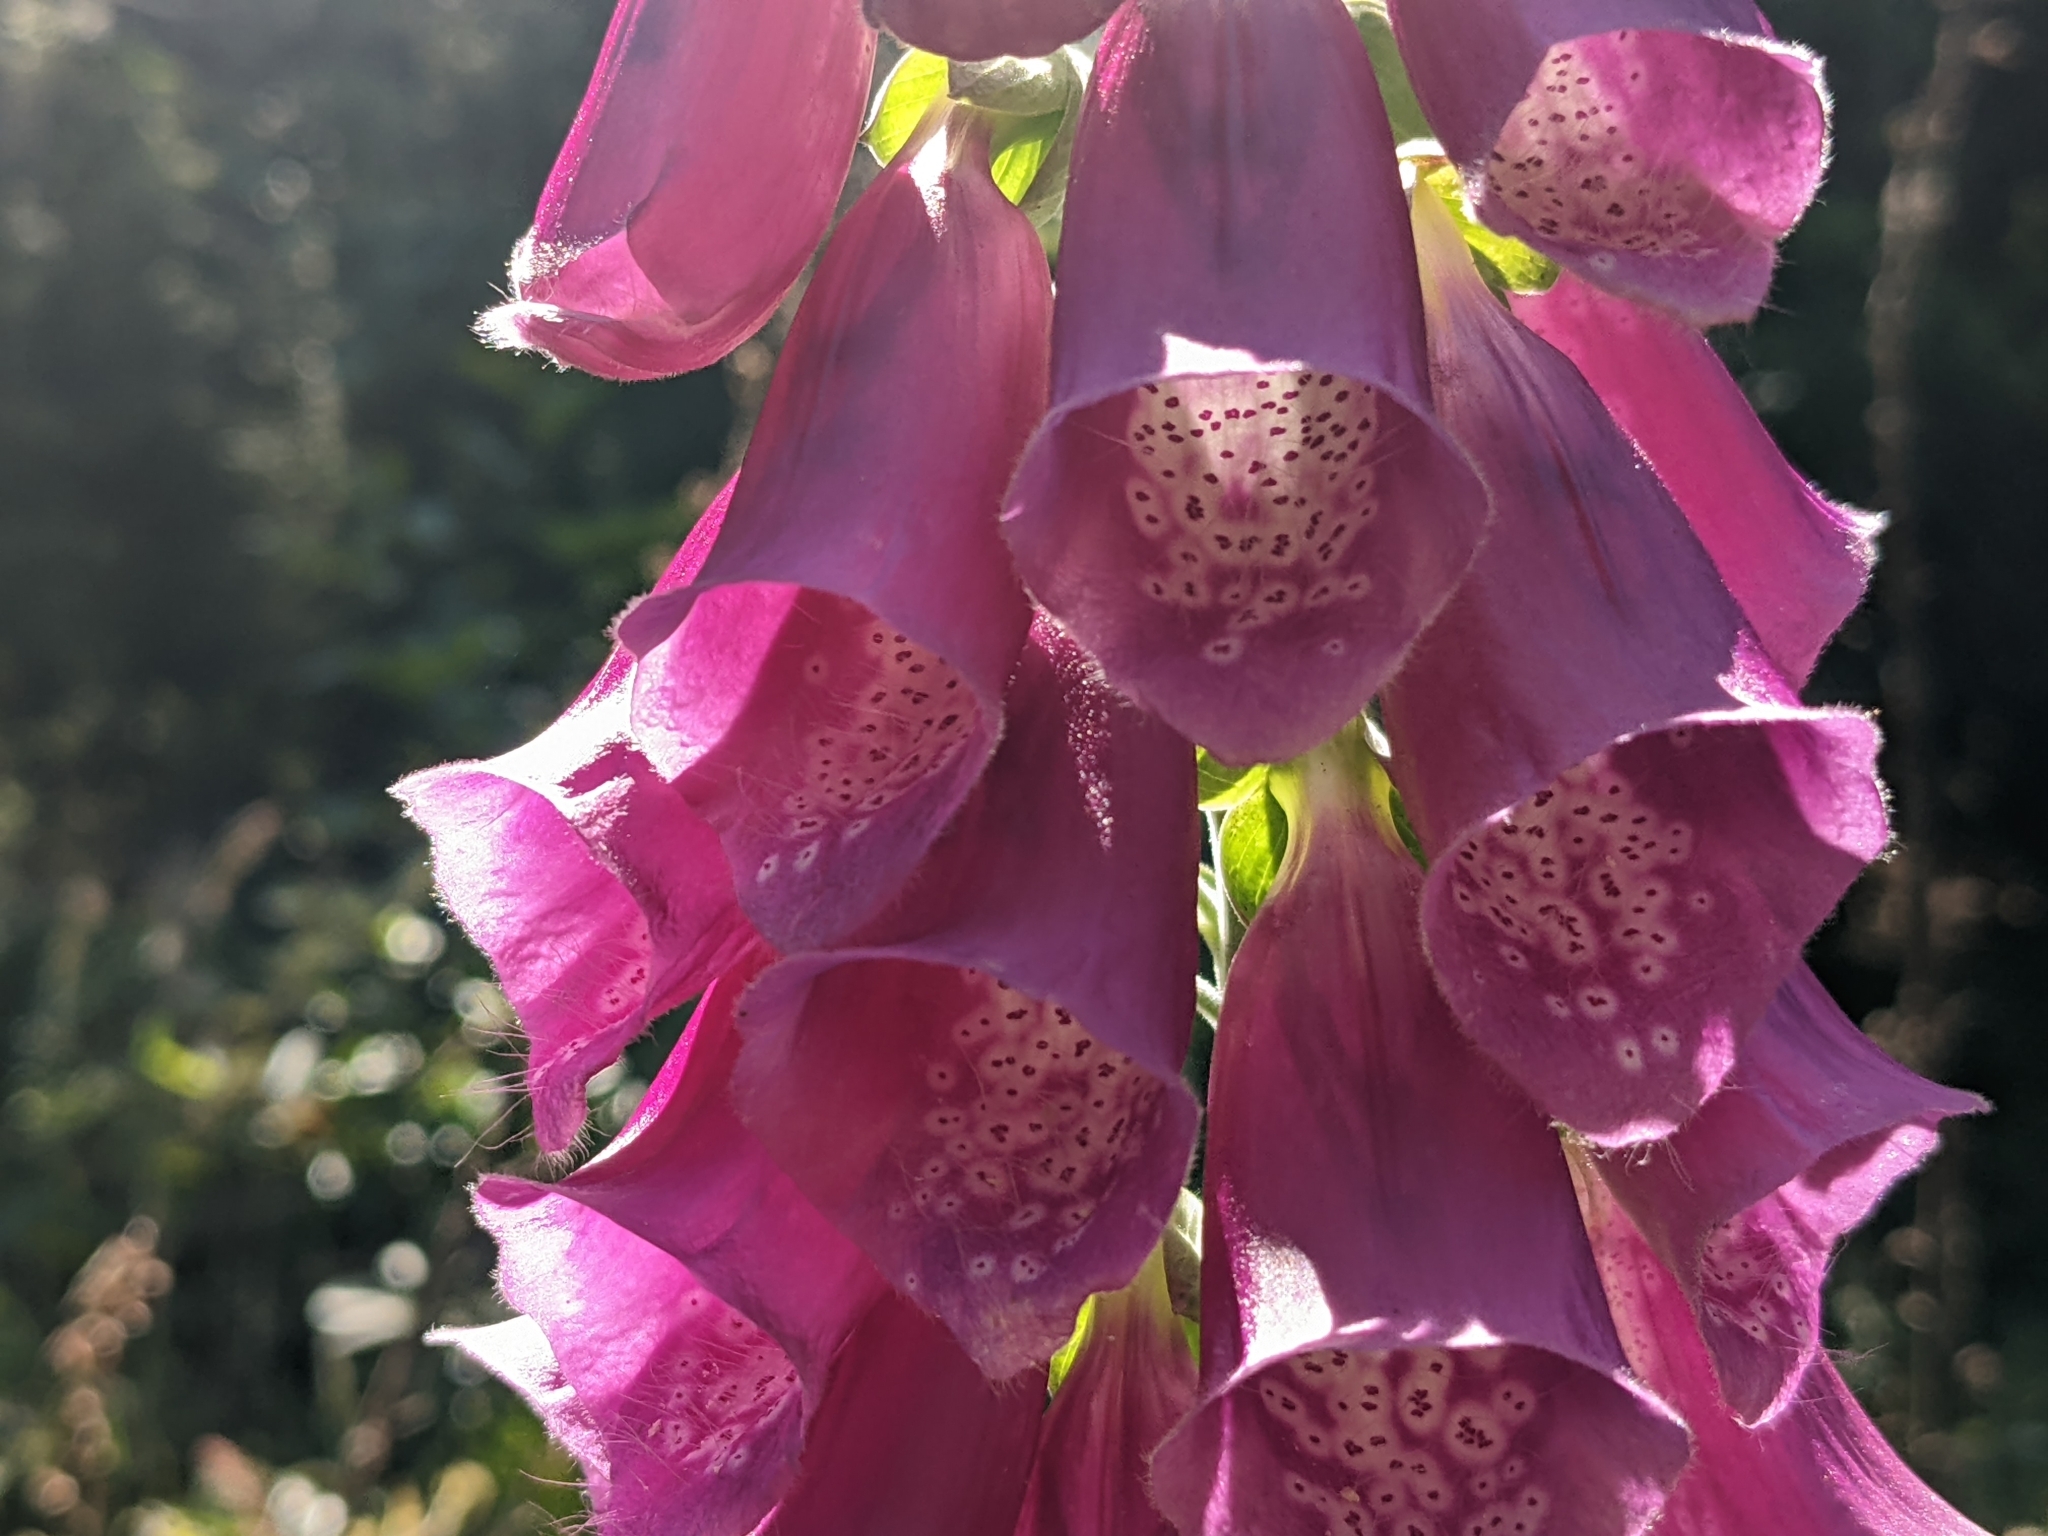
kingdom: Plantae
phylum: Tracheophyta
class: Magnoliopsida
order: Lamiales
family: Plantaginaceae
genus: Digitalis
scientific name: Digitalis purpurea
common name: Foxglove
